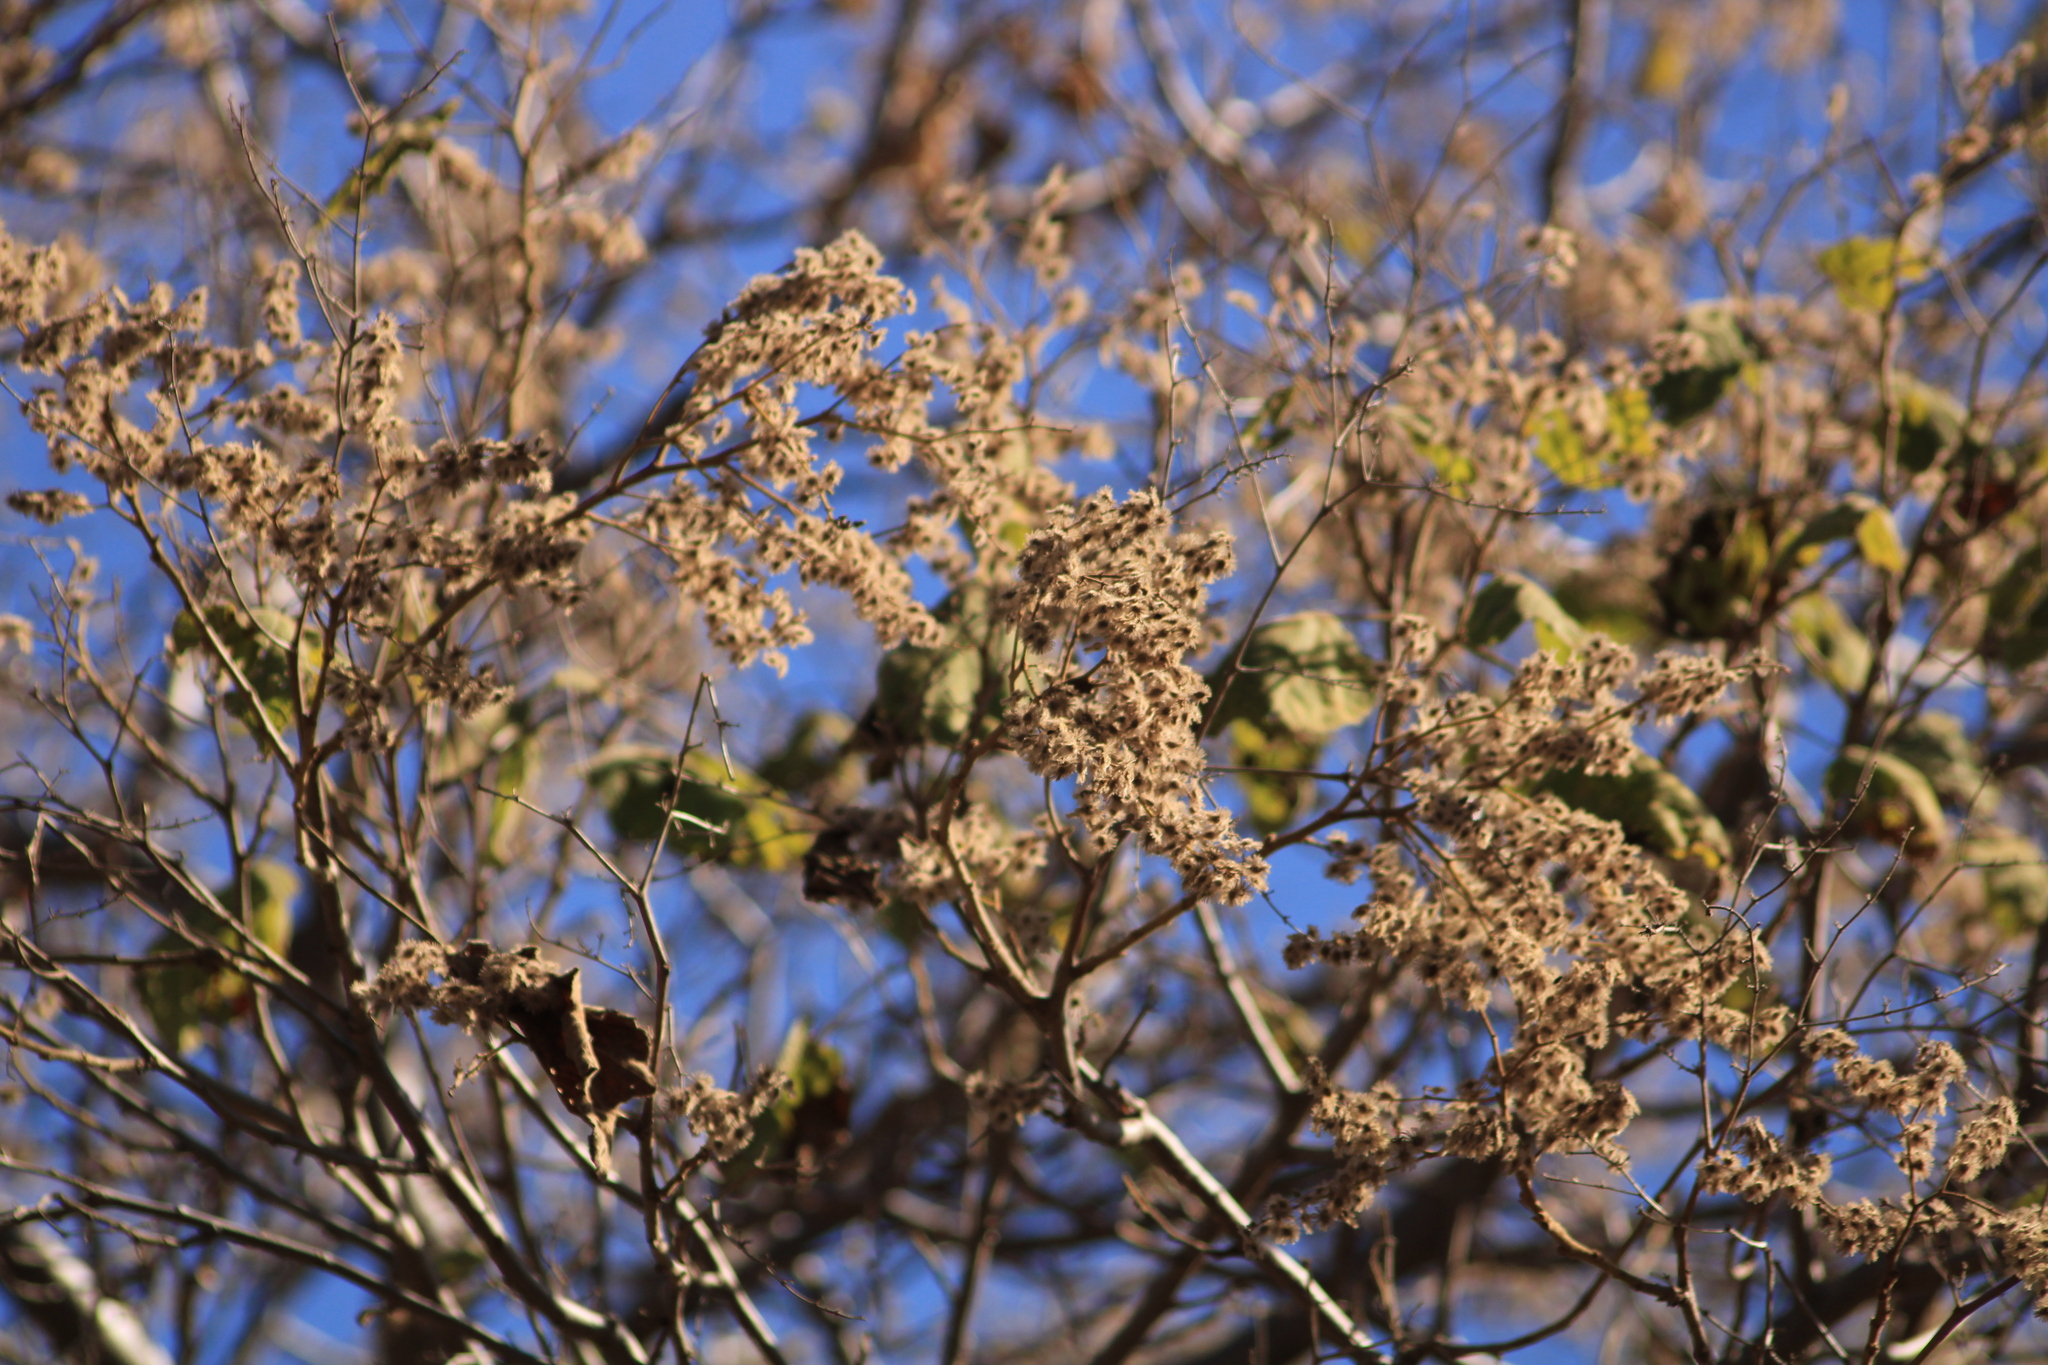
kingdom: Plantae
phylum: Tracheophyta
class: Magnoliopsida
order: Malvales
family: Malvaceae
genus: Heliocarpus
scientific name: Heliocarpus terebinthinaceus
